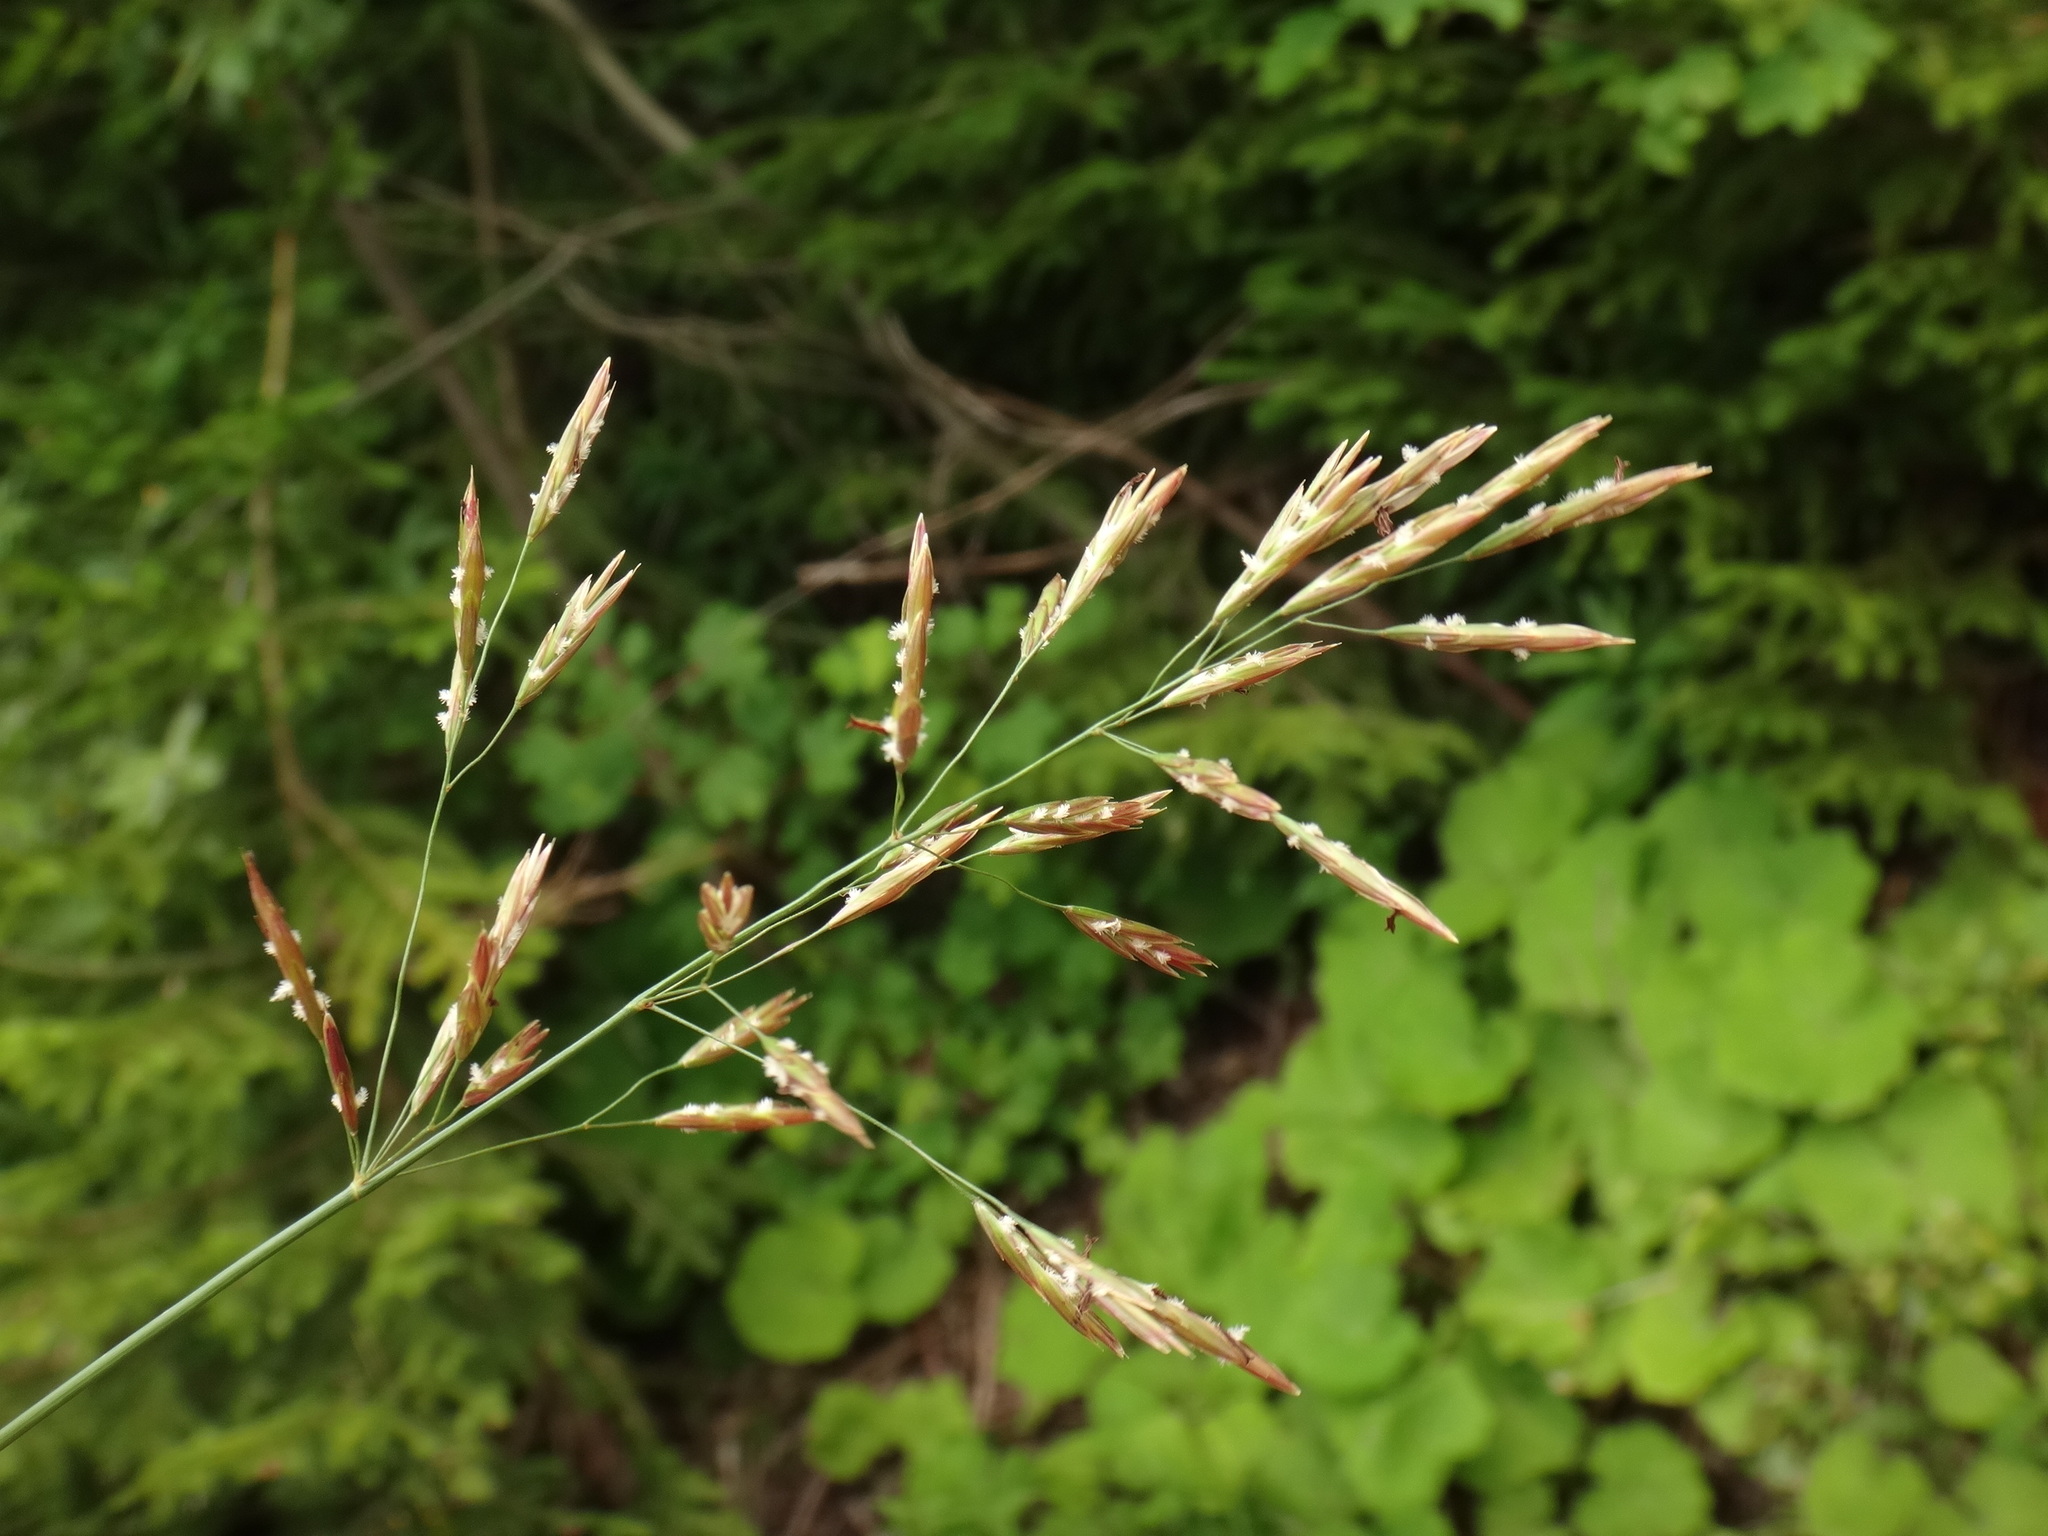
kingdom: Plantae
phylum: Tracheophyta
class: Liliopsida
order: Poales
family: Poaceae
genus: Bromus
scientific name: Bromus inermis
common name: Smooth brome
